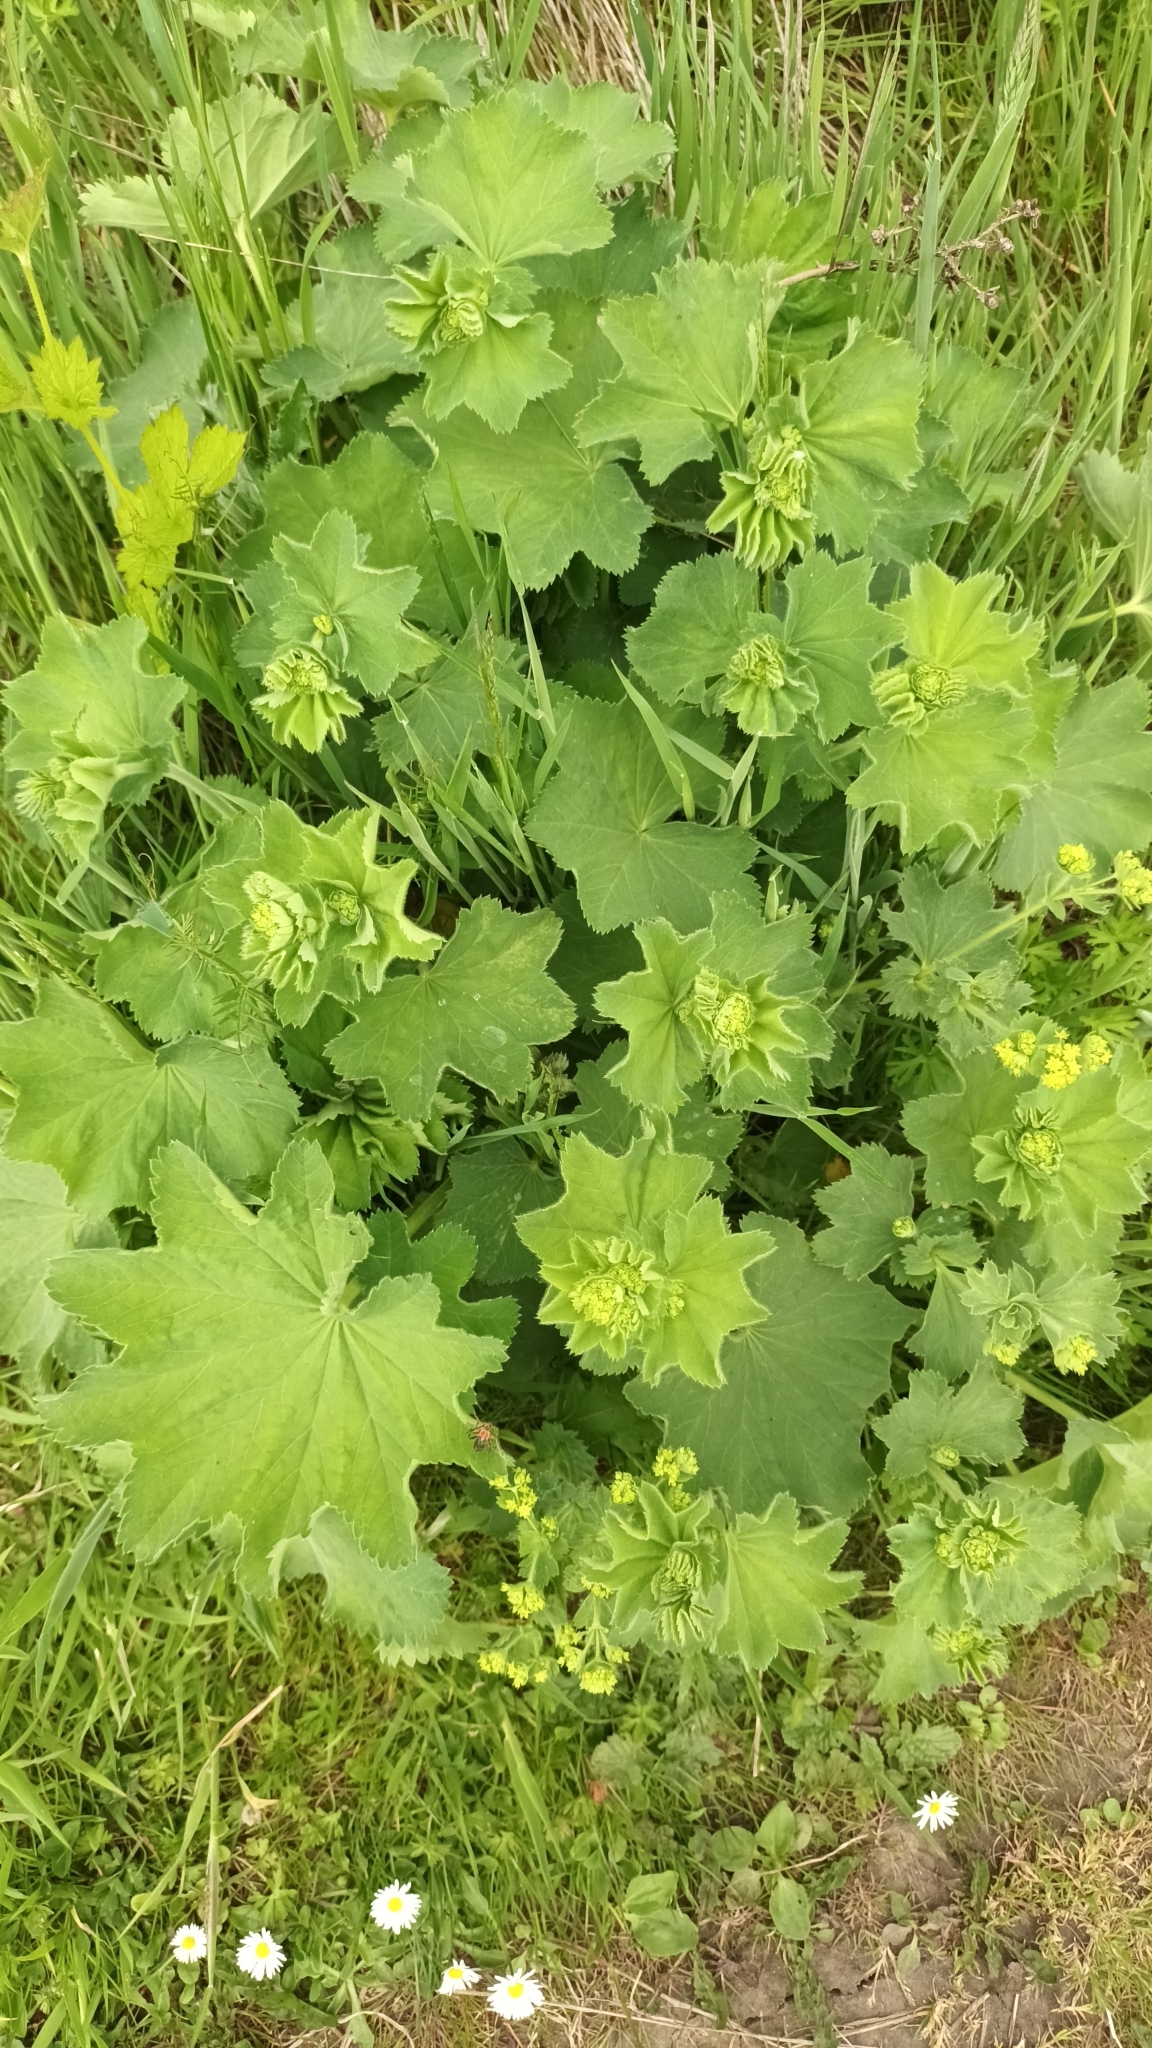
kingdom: Plantae
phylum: Tracheophyta
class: Magnoliopsida
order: Rosales
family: Rosaceae
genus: Alchemilla
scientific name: Alchemilla mollis
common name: Lady's-mantle
